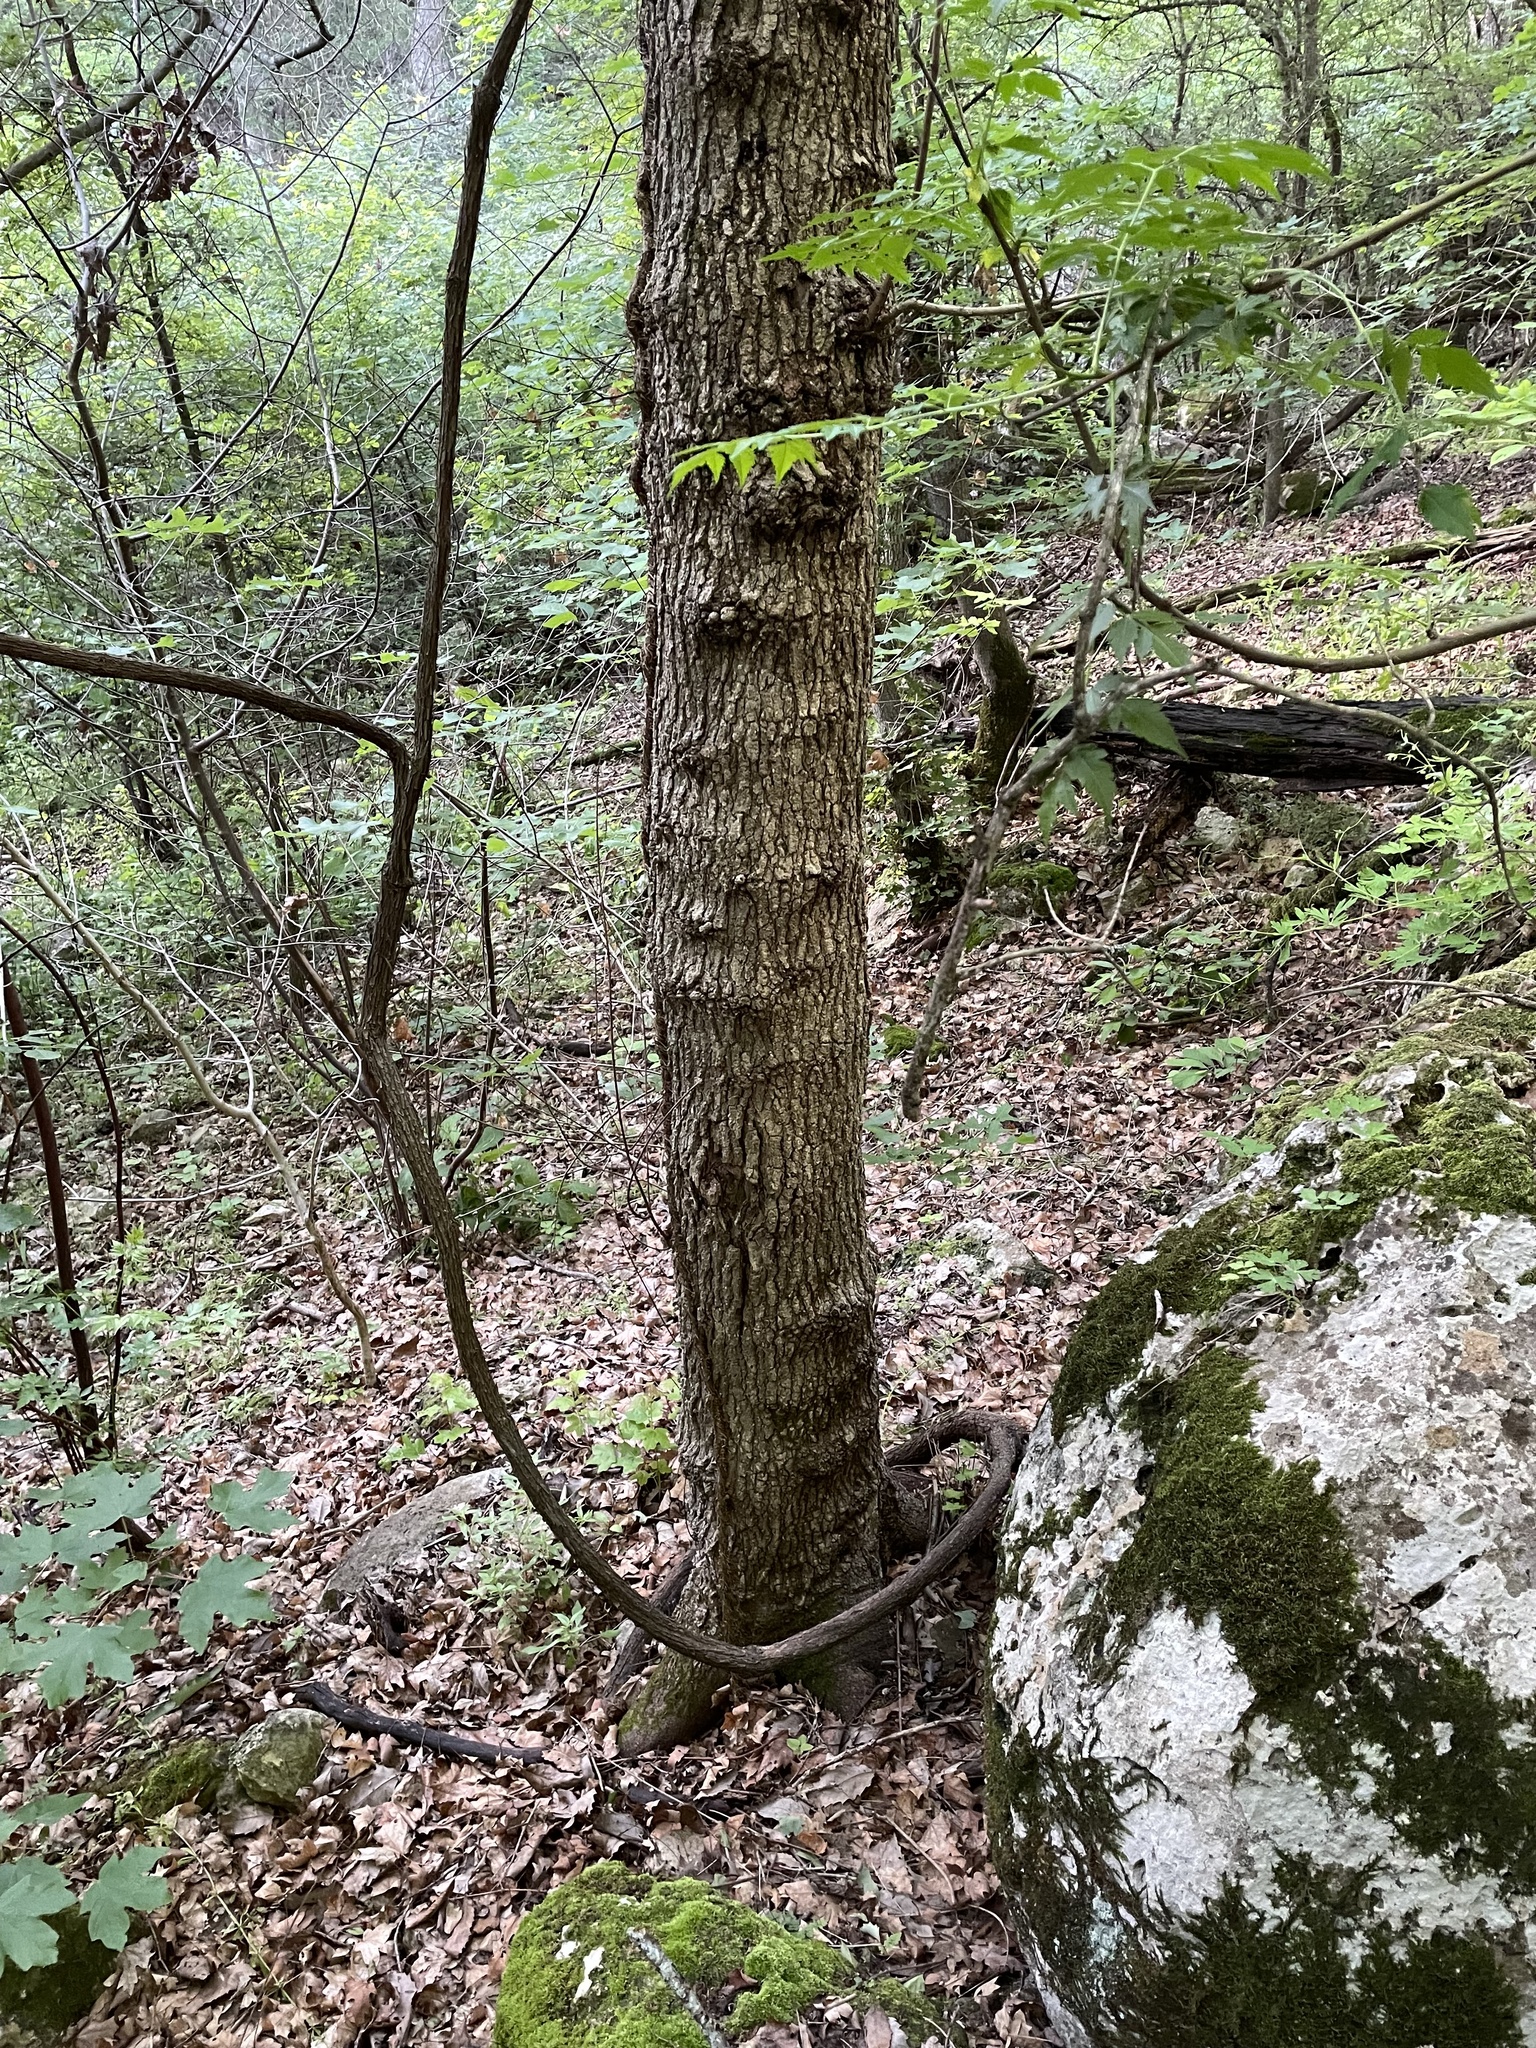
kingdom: Plantae
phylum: Tracheophyta
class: Magnoliopsida
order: Sapindales
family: Sapindaceae
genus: Acer
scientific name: Acer grandidentatum
